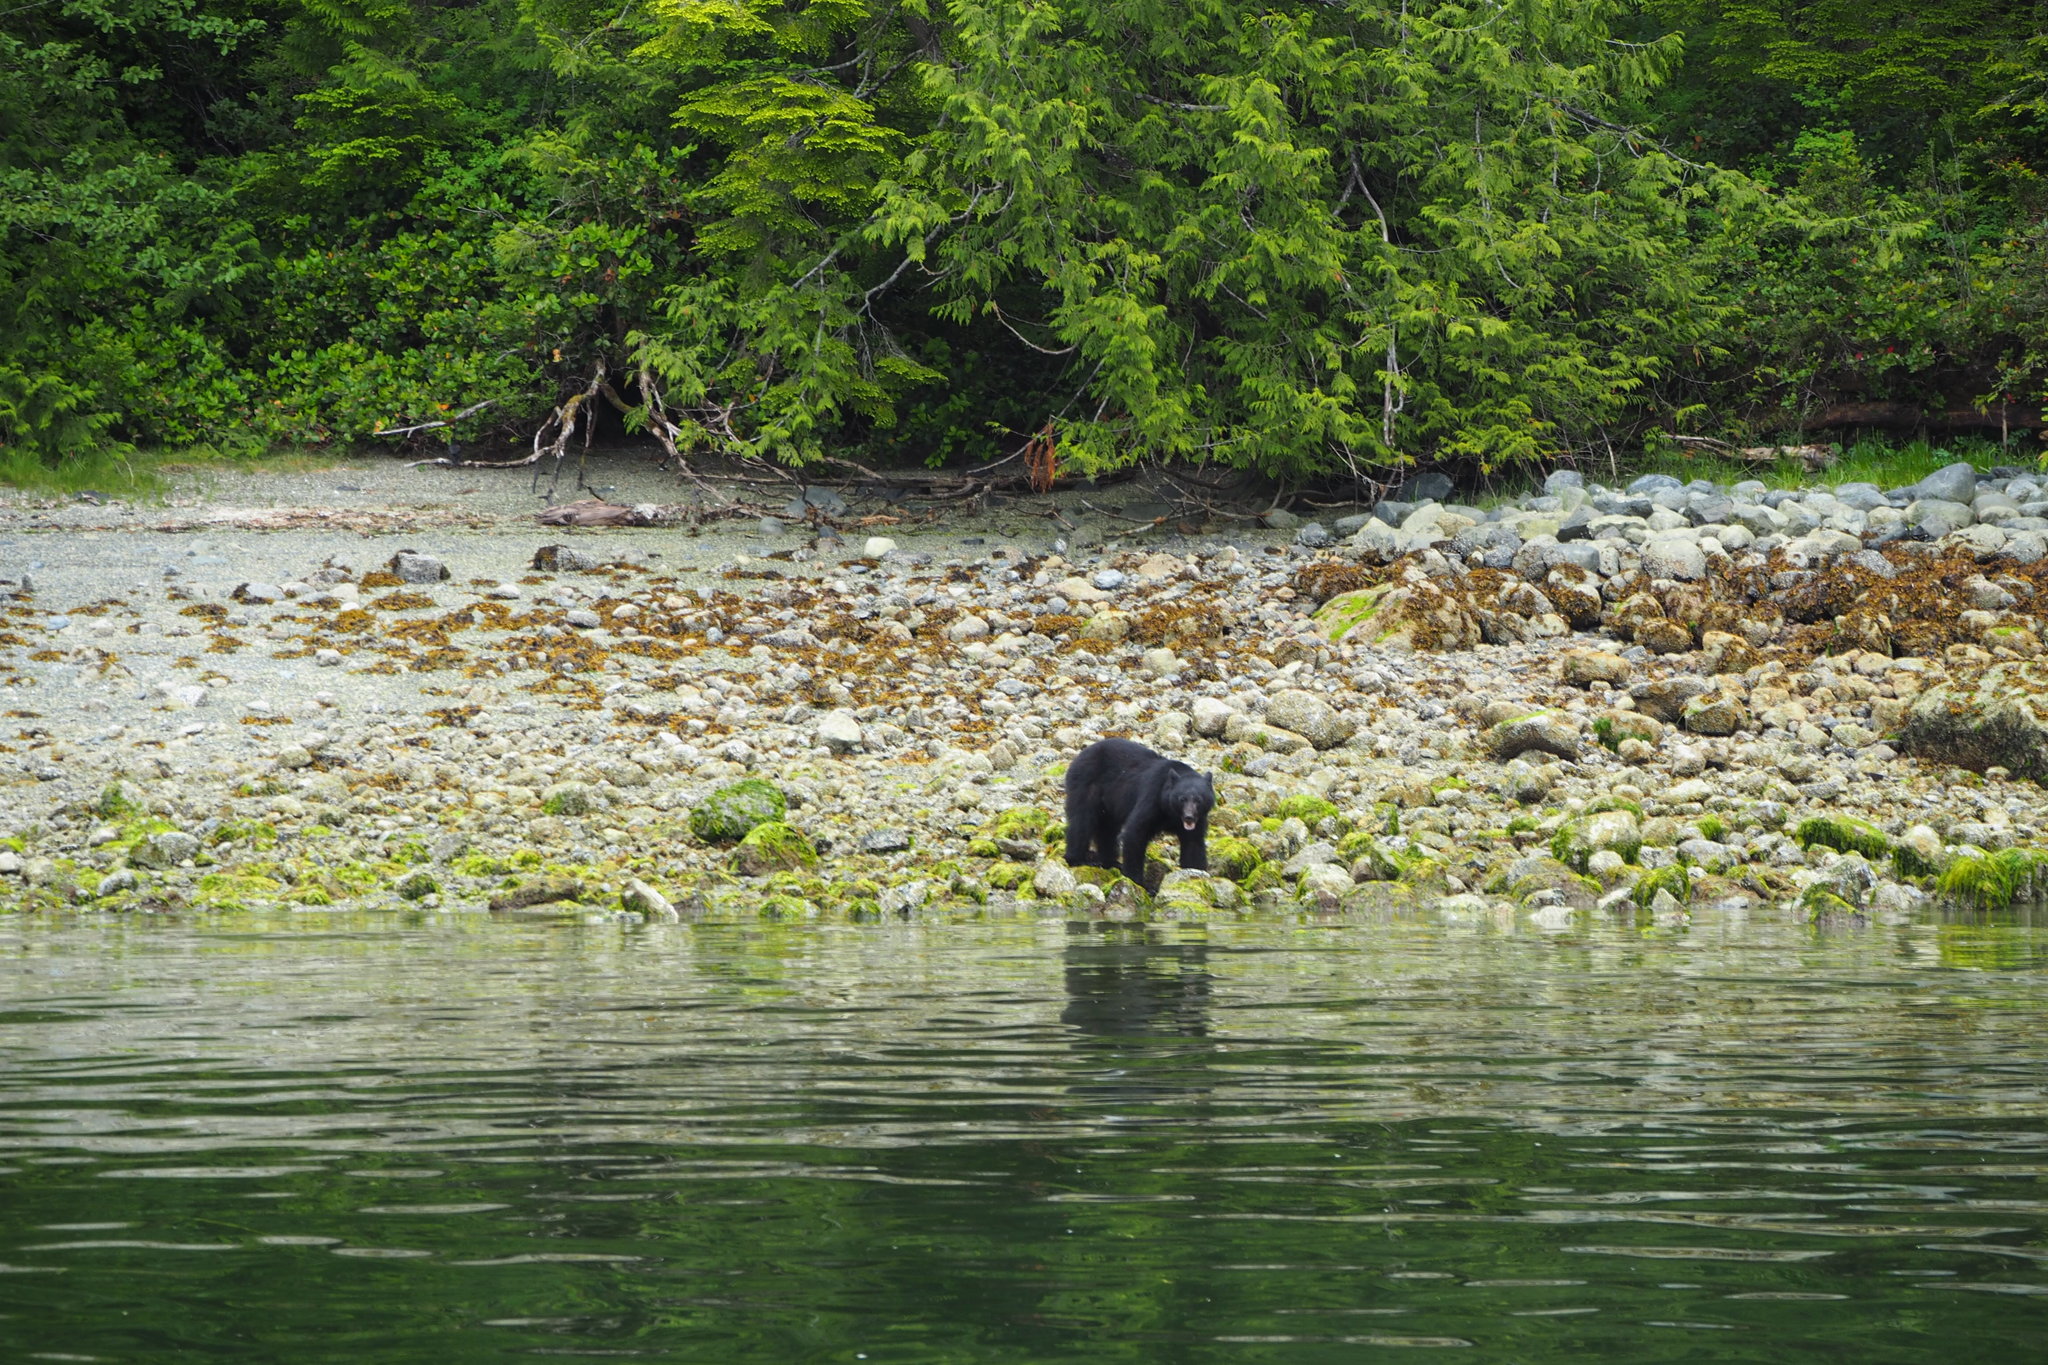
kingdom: Animalia
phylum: Chordata
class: Mammalia
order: Carnivora
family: Ursidae
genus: Ursus
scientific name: Ursus americanus
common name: American black bear
